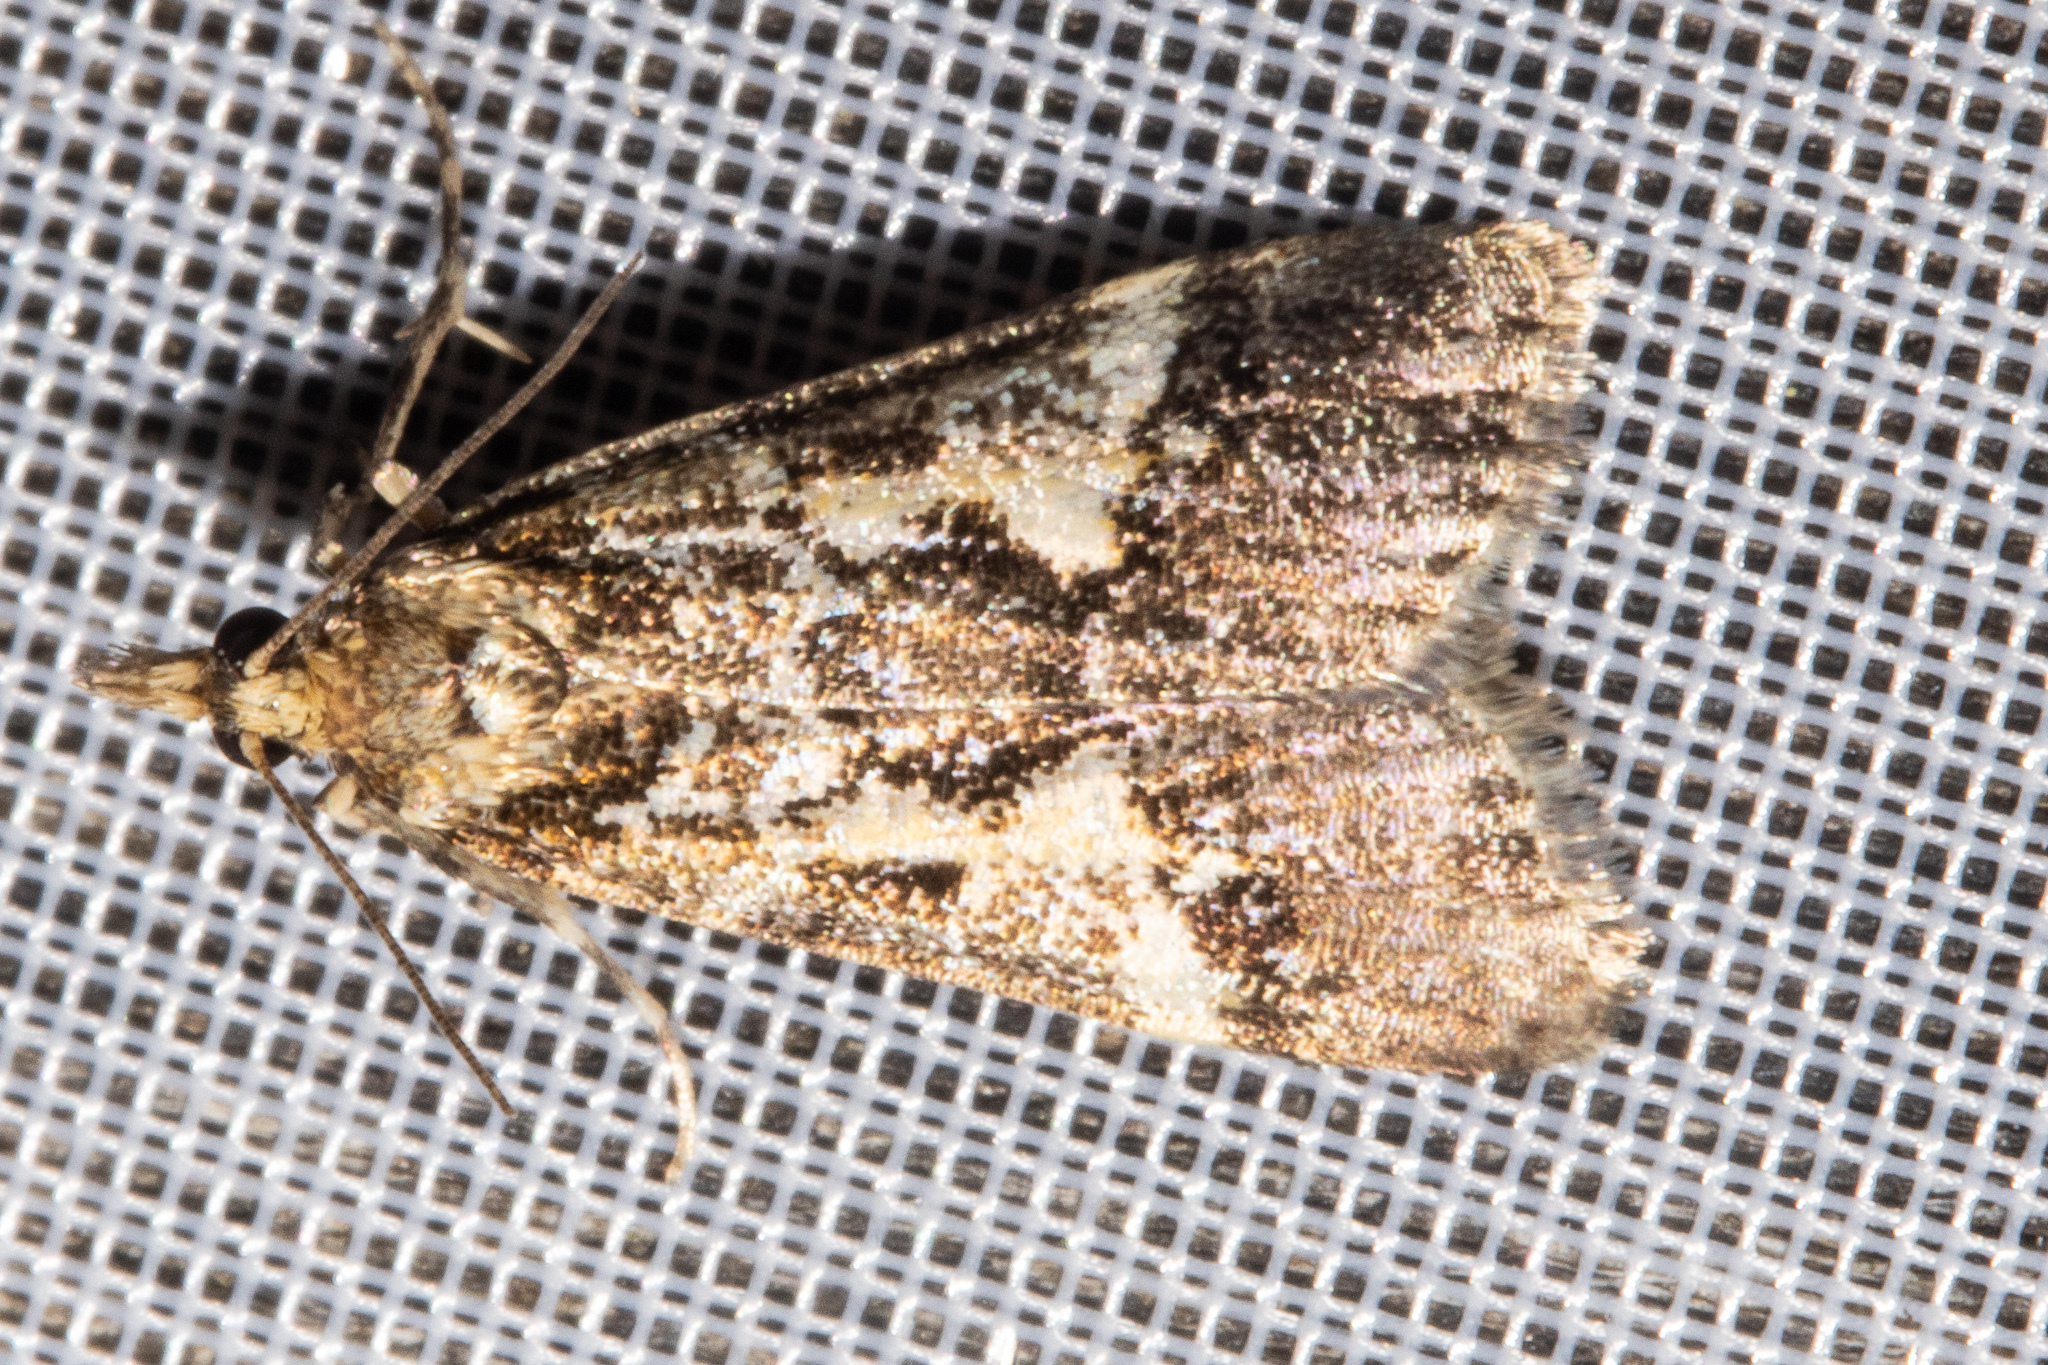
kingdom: Animalia
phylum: Arthropoda
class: Insecta
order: Lepidoptera
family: Crambidae
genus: Eudonia
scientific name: Eudonia characta
